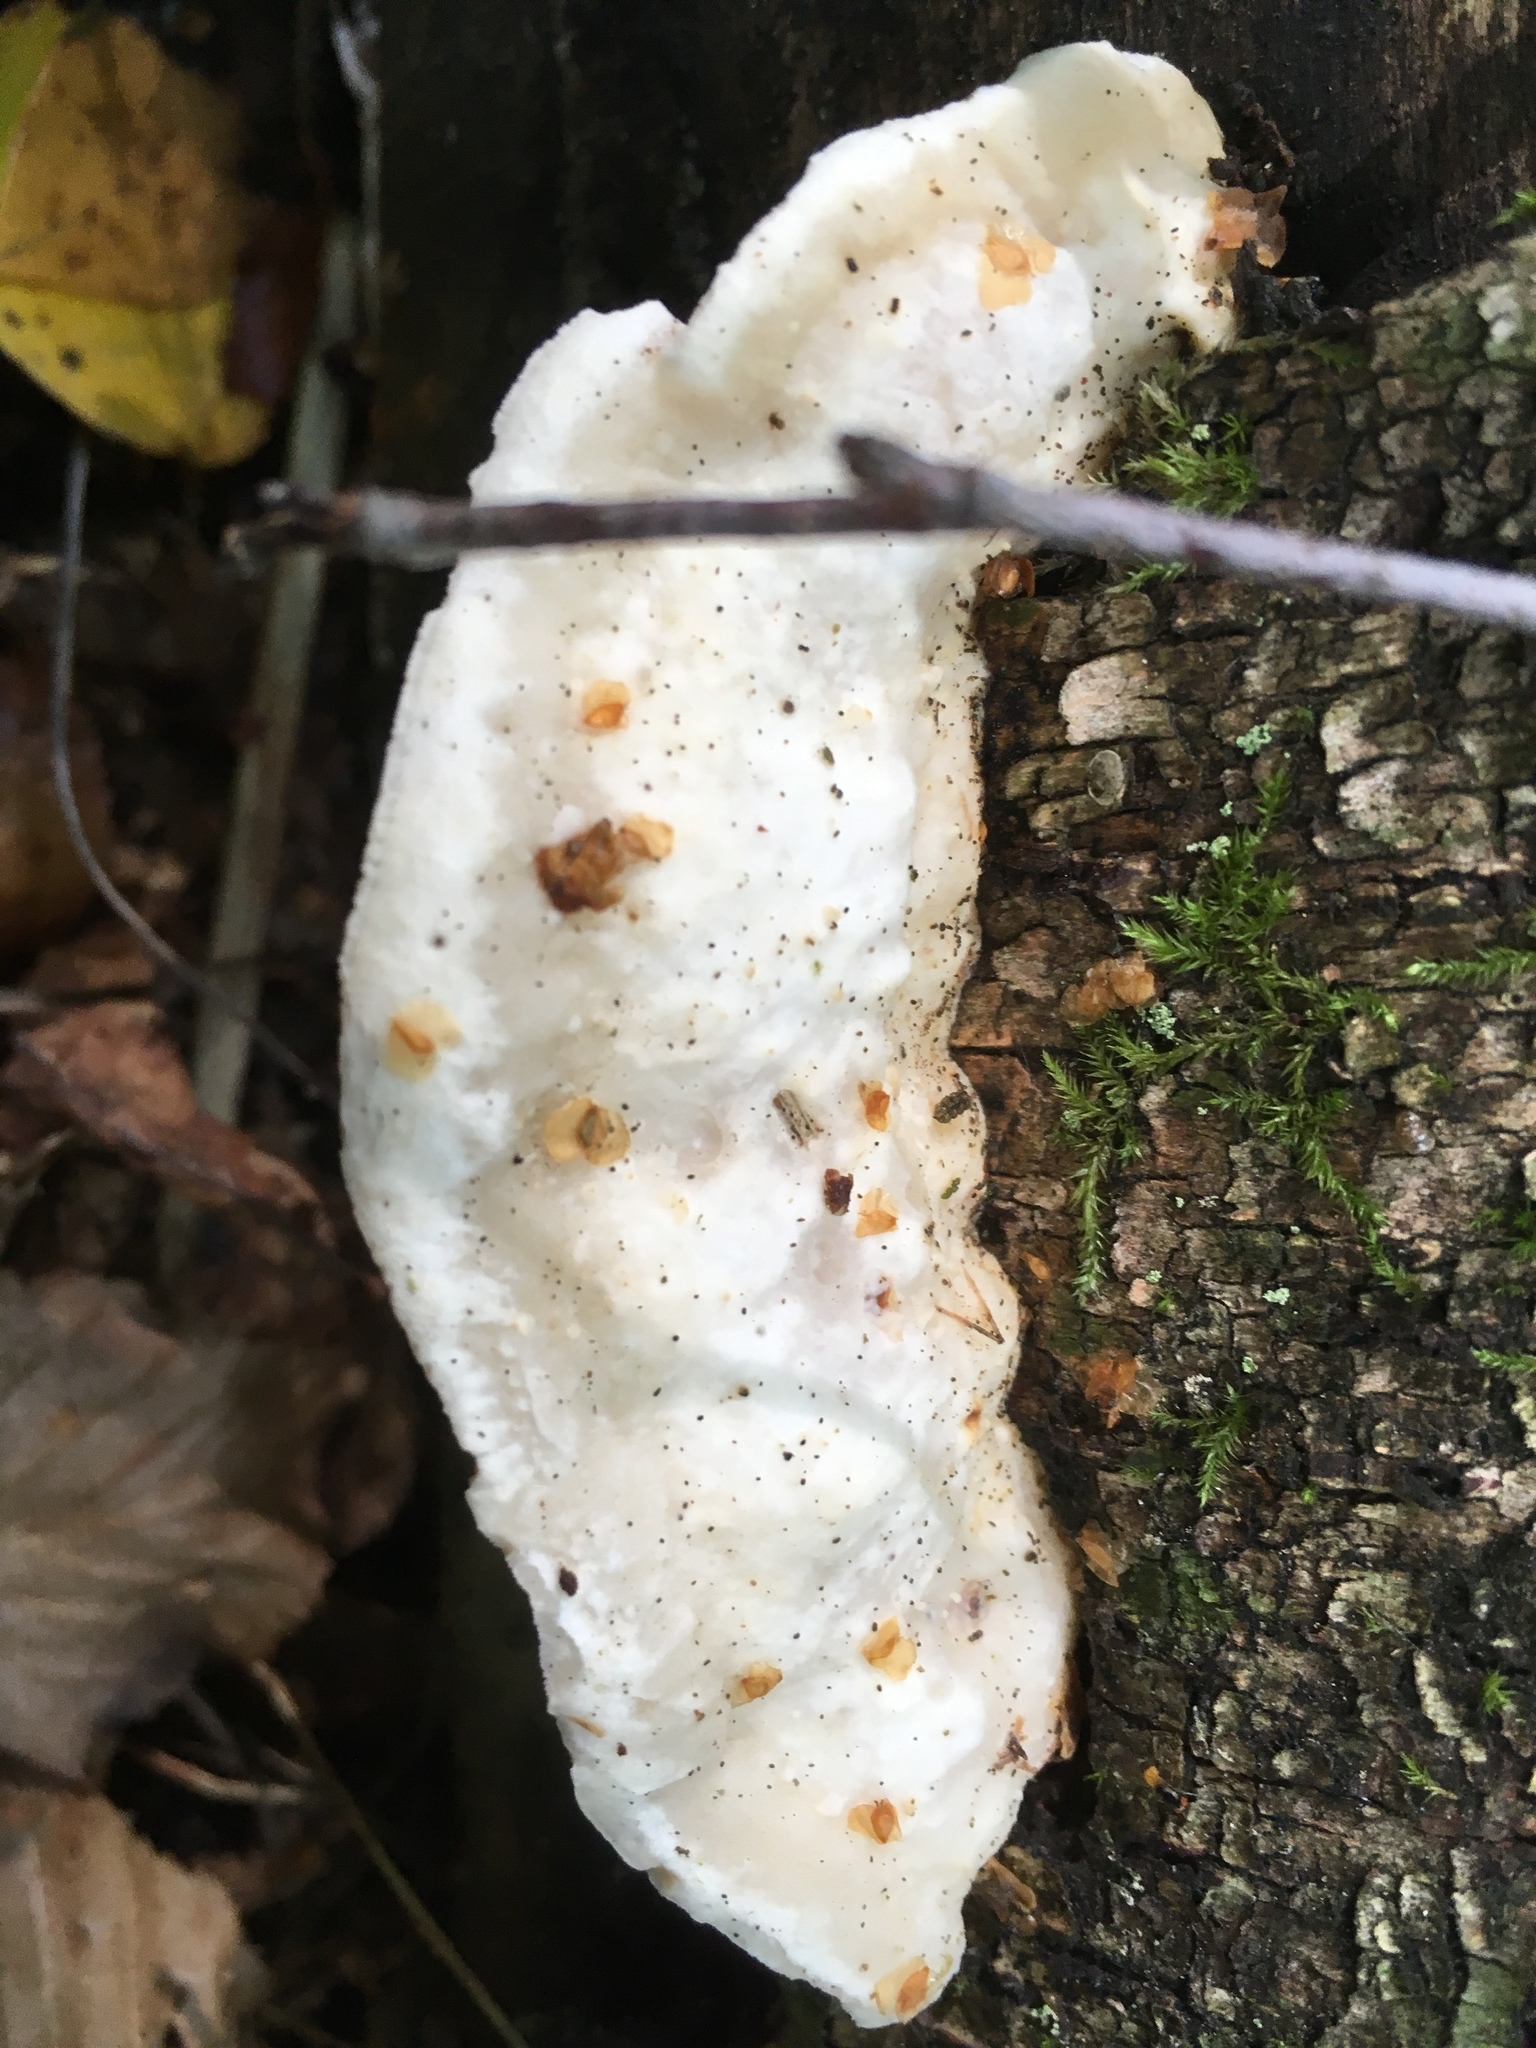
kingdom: Fungi
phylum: Basidiomycota
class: Agaricomycetes
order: Polyporales
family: Incrustoporiaceae
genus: Tyromyces
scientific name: Tyromyces lacteus
